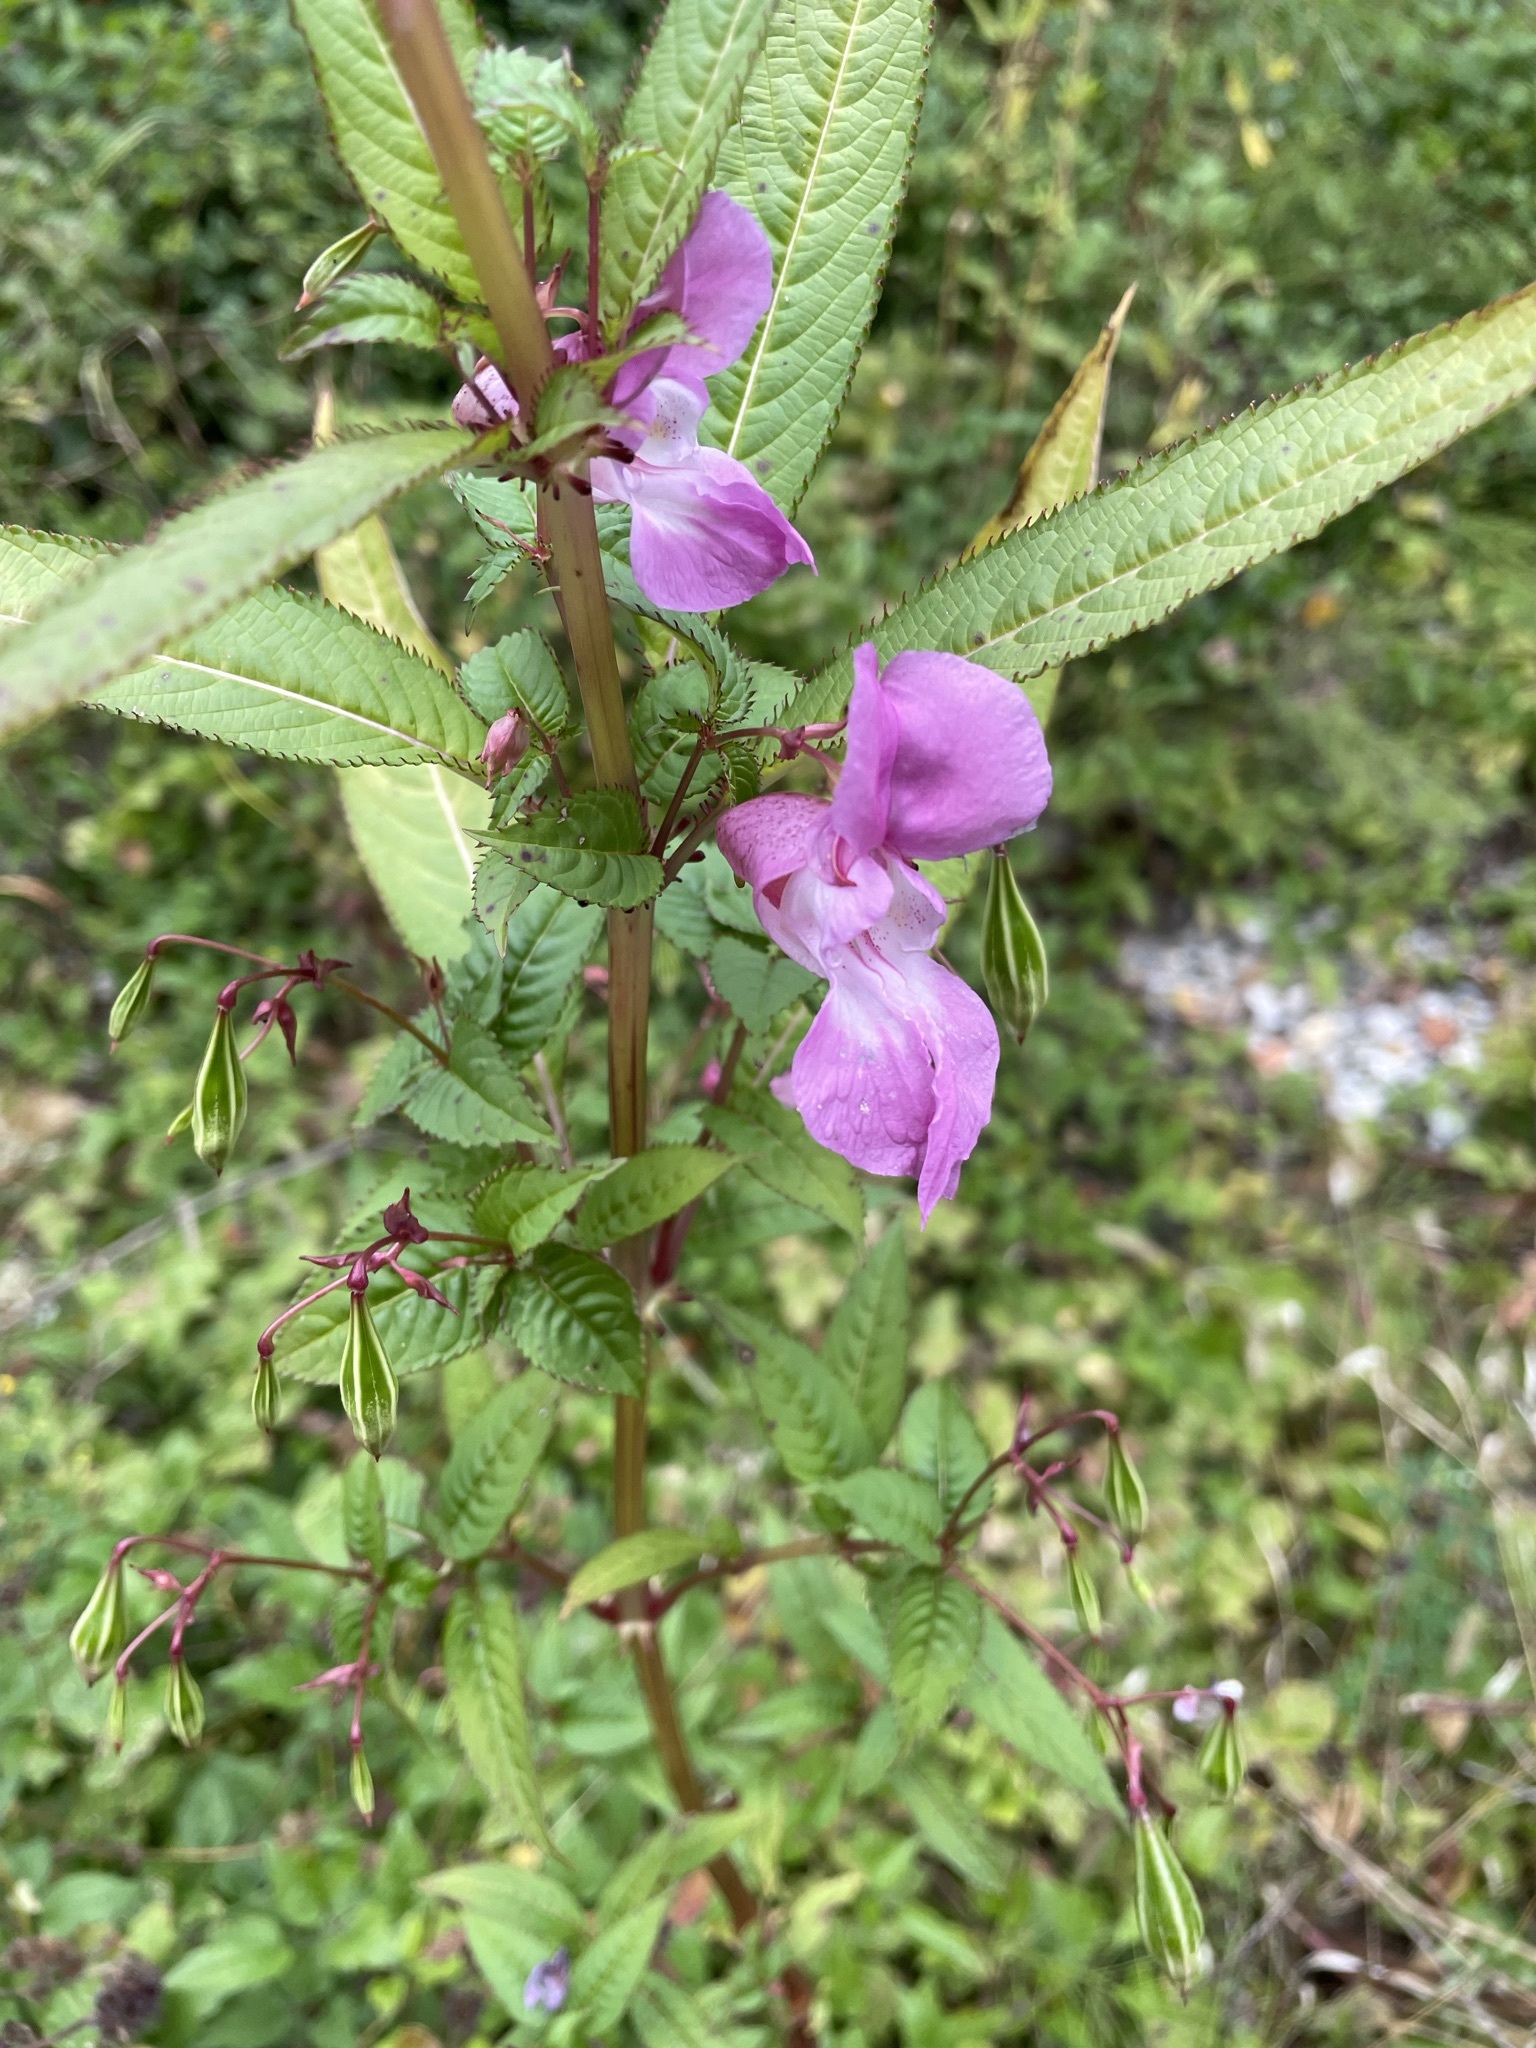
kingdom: Plantae
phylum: Tracheophyta
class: Magnoliopsida
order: Ericales
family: Balsaminaceae
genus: Impatiens
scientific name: Impatiens glandulifera
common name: Himalayan balsam
